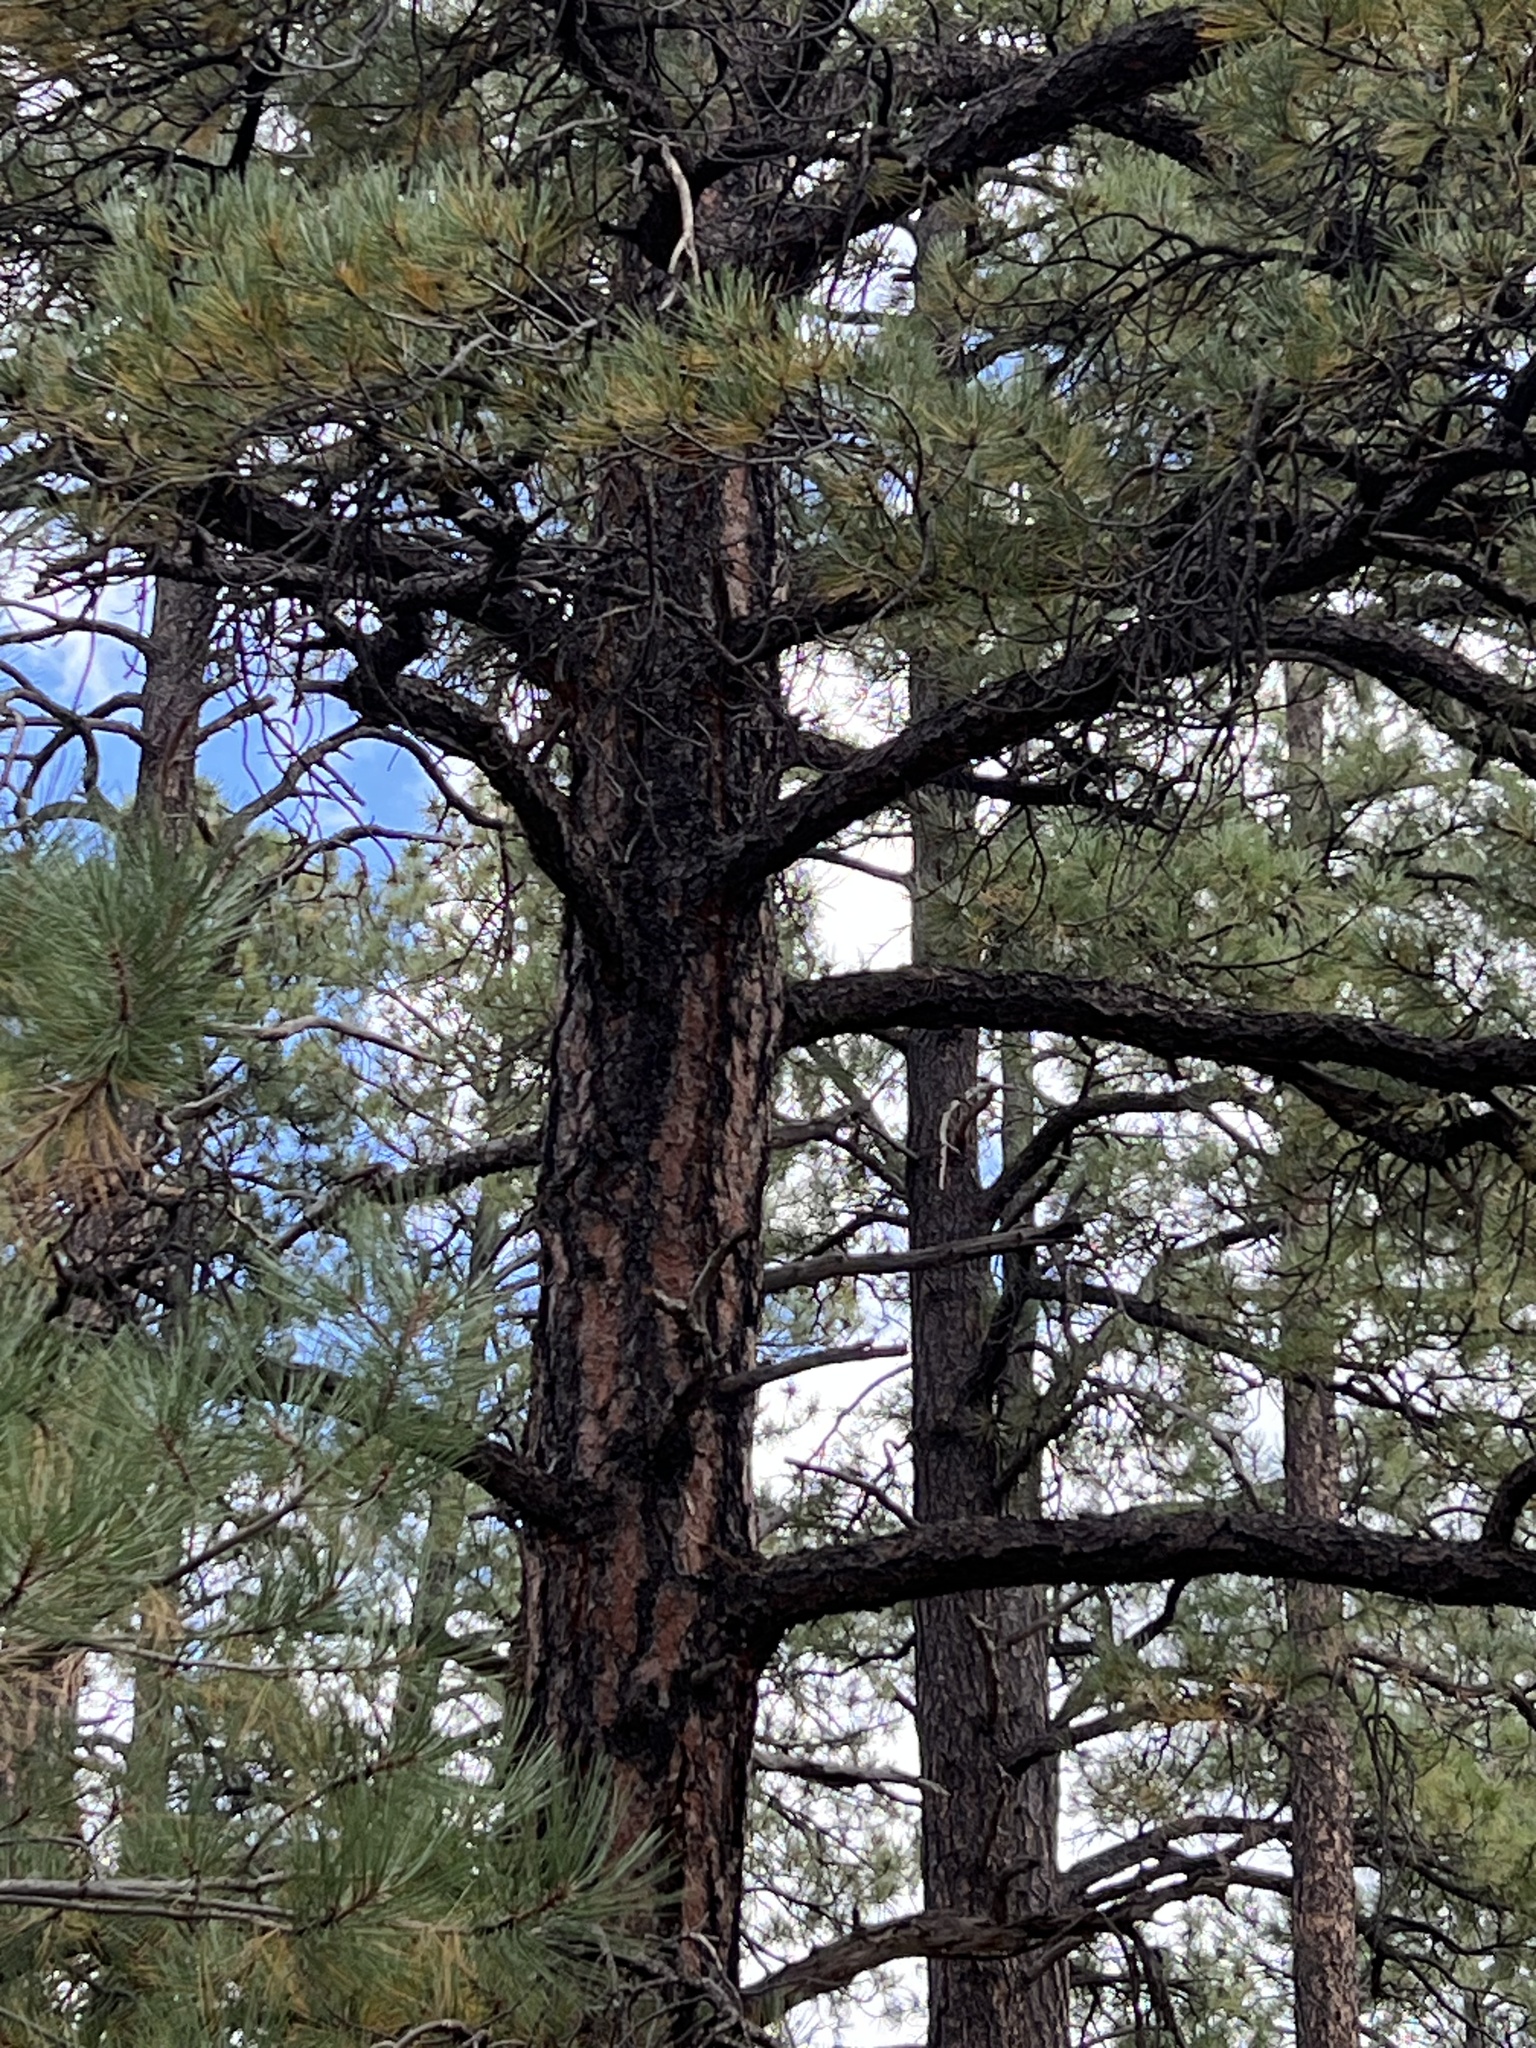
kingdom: Plantae
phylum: Tracheophyta
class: Pinopsida
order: Pinales
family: Pinaceae
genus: Pinus
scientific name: Pinus ponderosa
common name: Western yellow-pine
